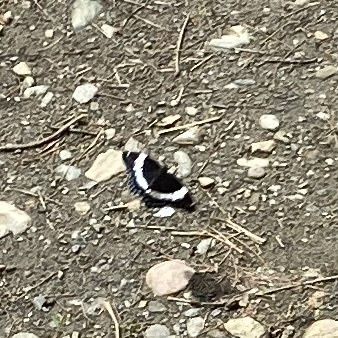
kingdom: Animalia
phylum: Arthropoda
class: Insecta
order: Lepidoptera
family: Nymphalidae
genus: Limenitis
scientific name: Limenitis arthemis
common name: Red-spotted admiral
